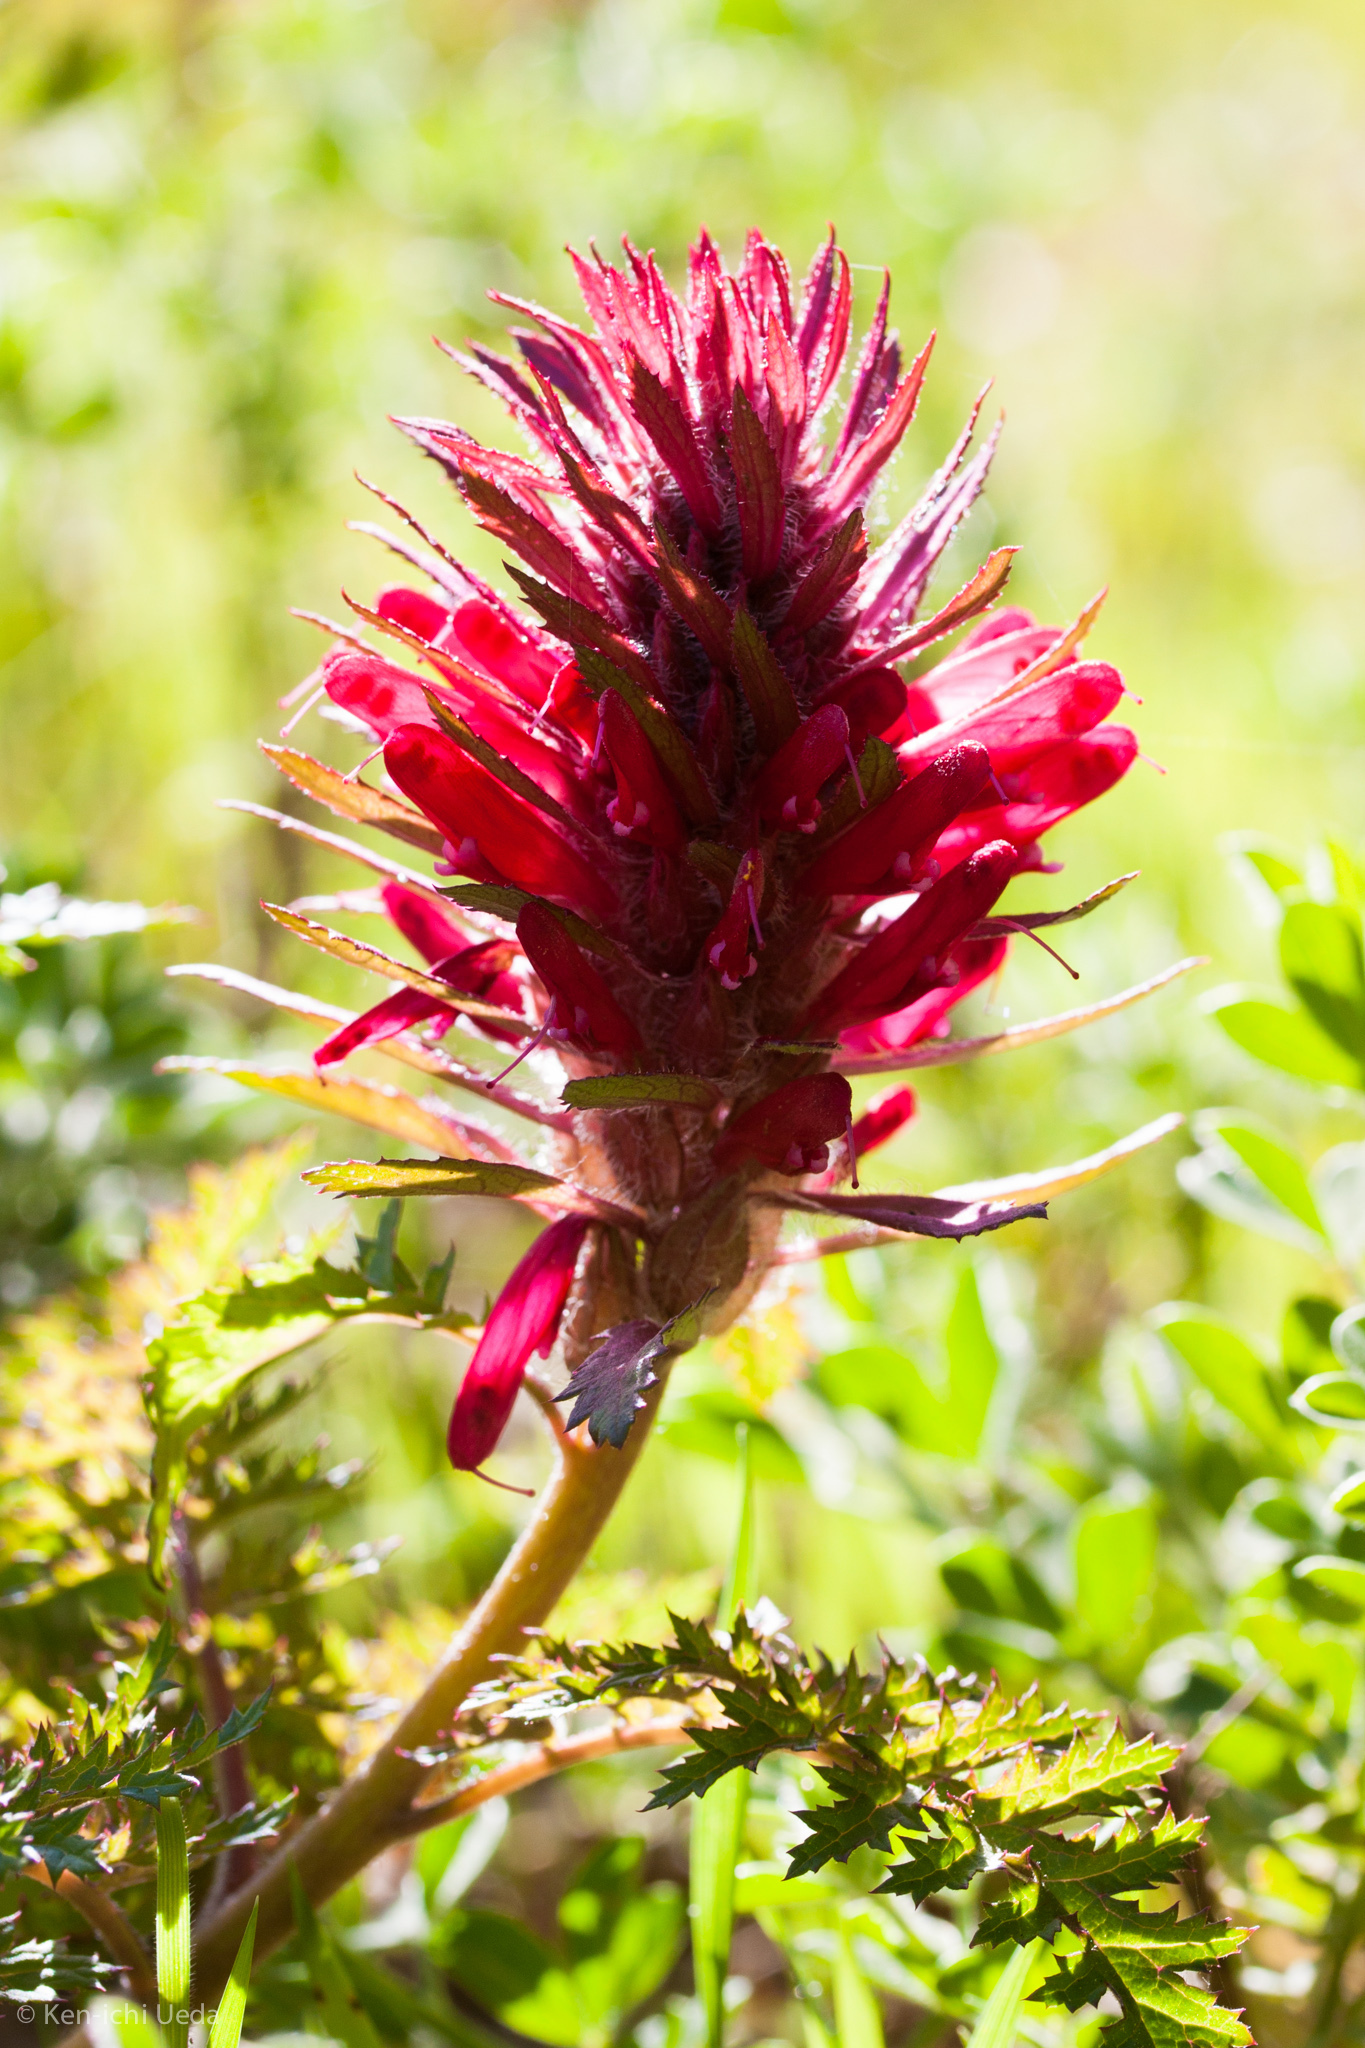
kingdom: Plantae
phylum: Tracheophyta
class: Magnoliopsida
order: Lamiales
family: Orobanchaceae
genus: Pedicularis
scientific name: Pedicularis densiflora
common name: Indian warrior
